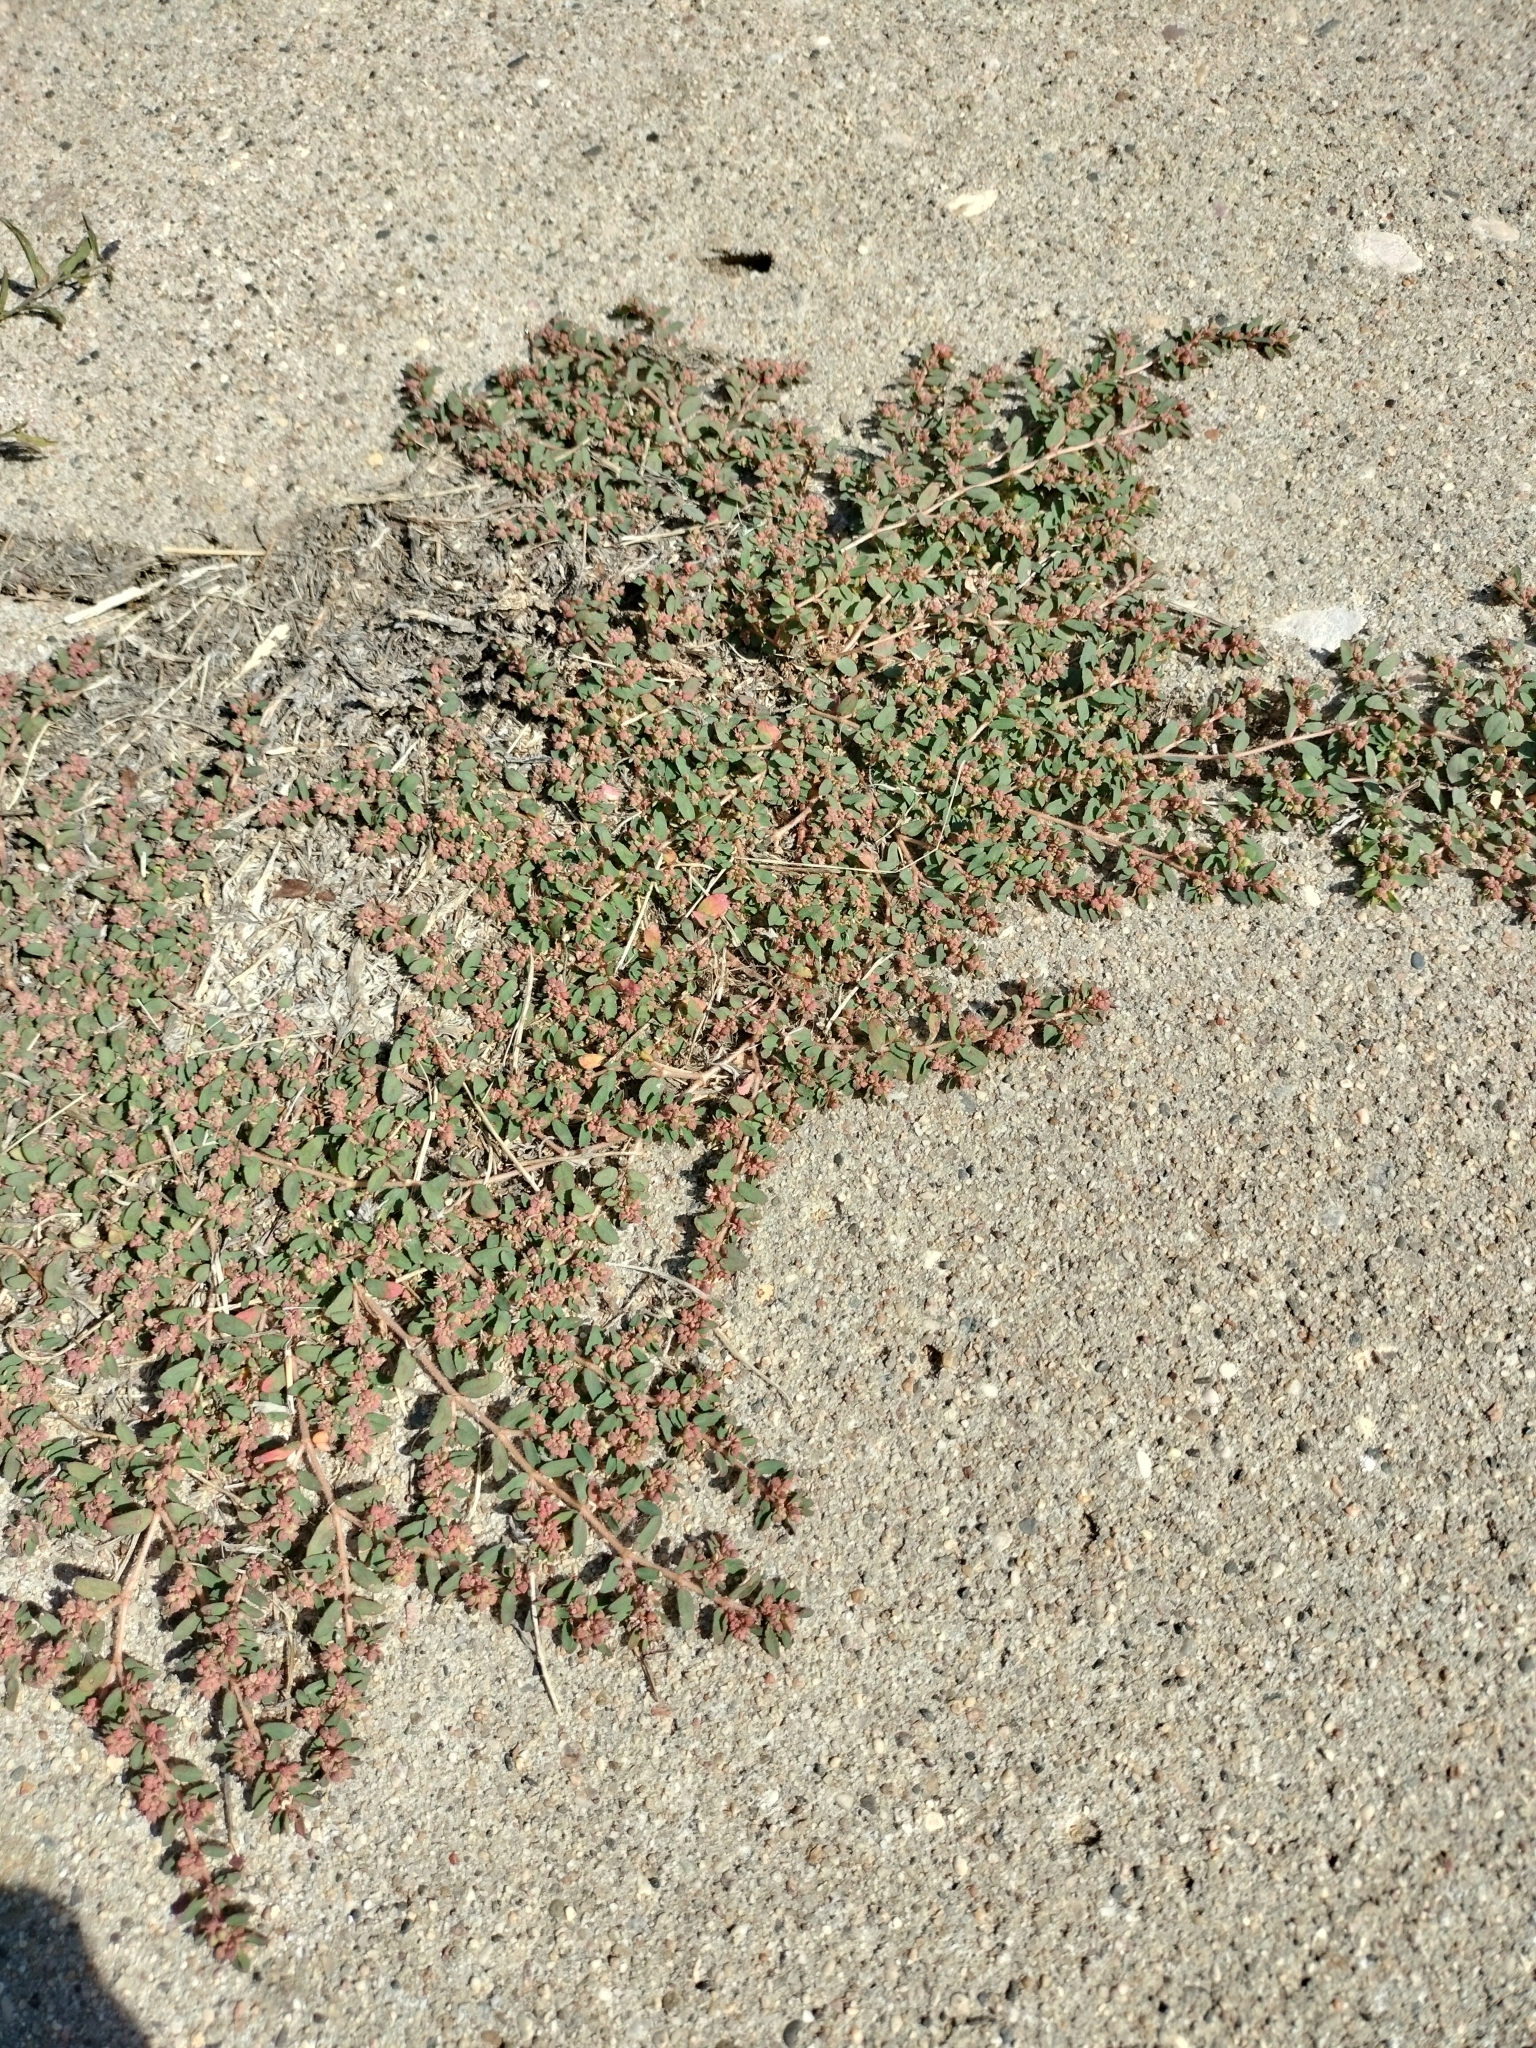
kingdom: Plantae
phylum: Tracheophyta
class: Magnoliopsida
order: Malpighiales
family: Euphorbiaceae
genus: Euphorbia
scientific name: Euphorbia maculata
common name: Spotted spurge
